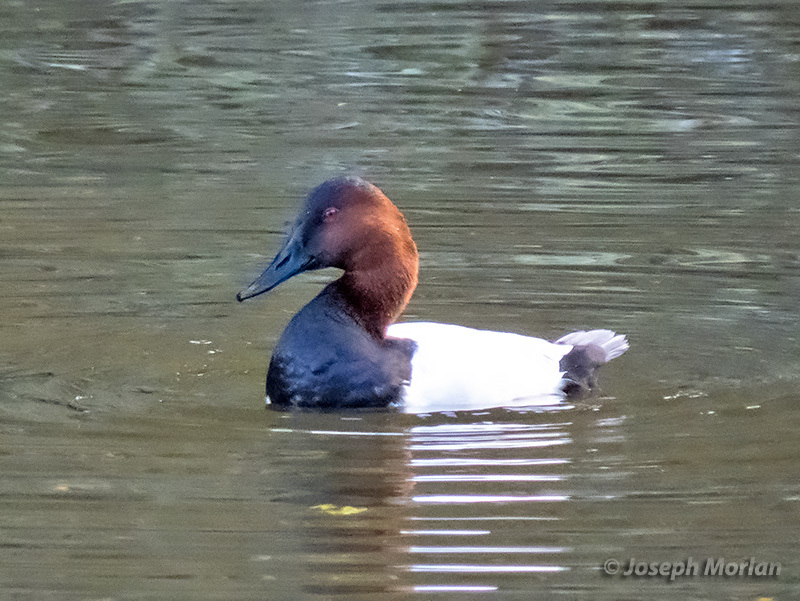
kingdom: Animalia
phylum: Chordata
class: Aves
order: Anseriformes
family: Anatidae
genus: Aythya
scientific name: Aythya valisineria
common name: Canvasback
